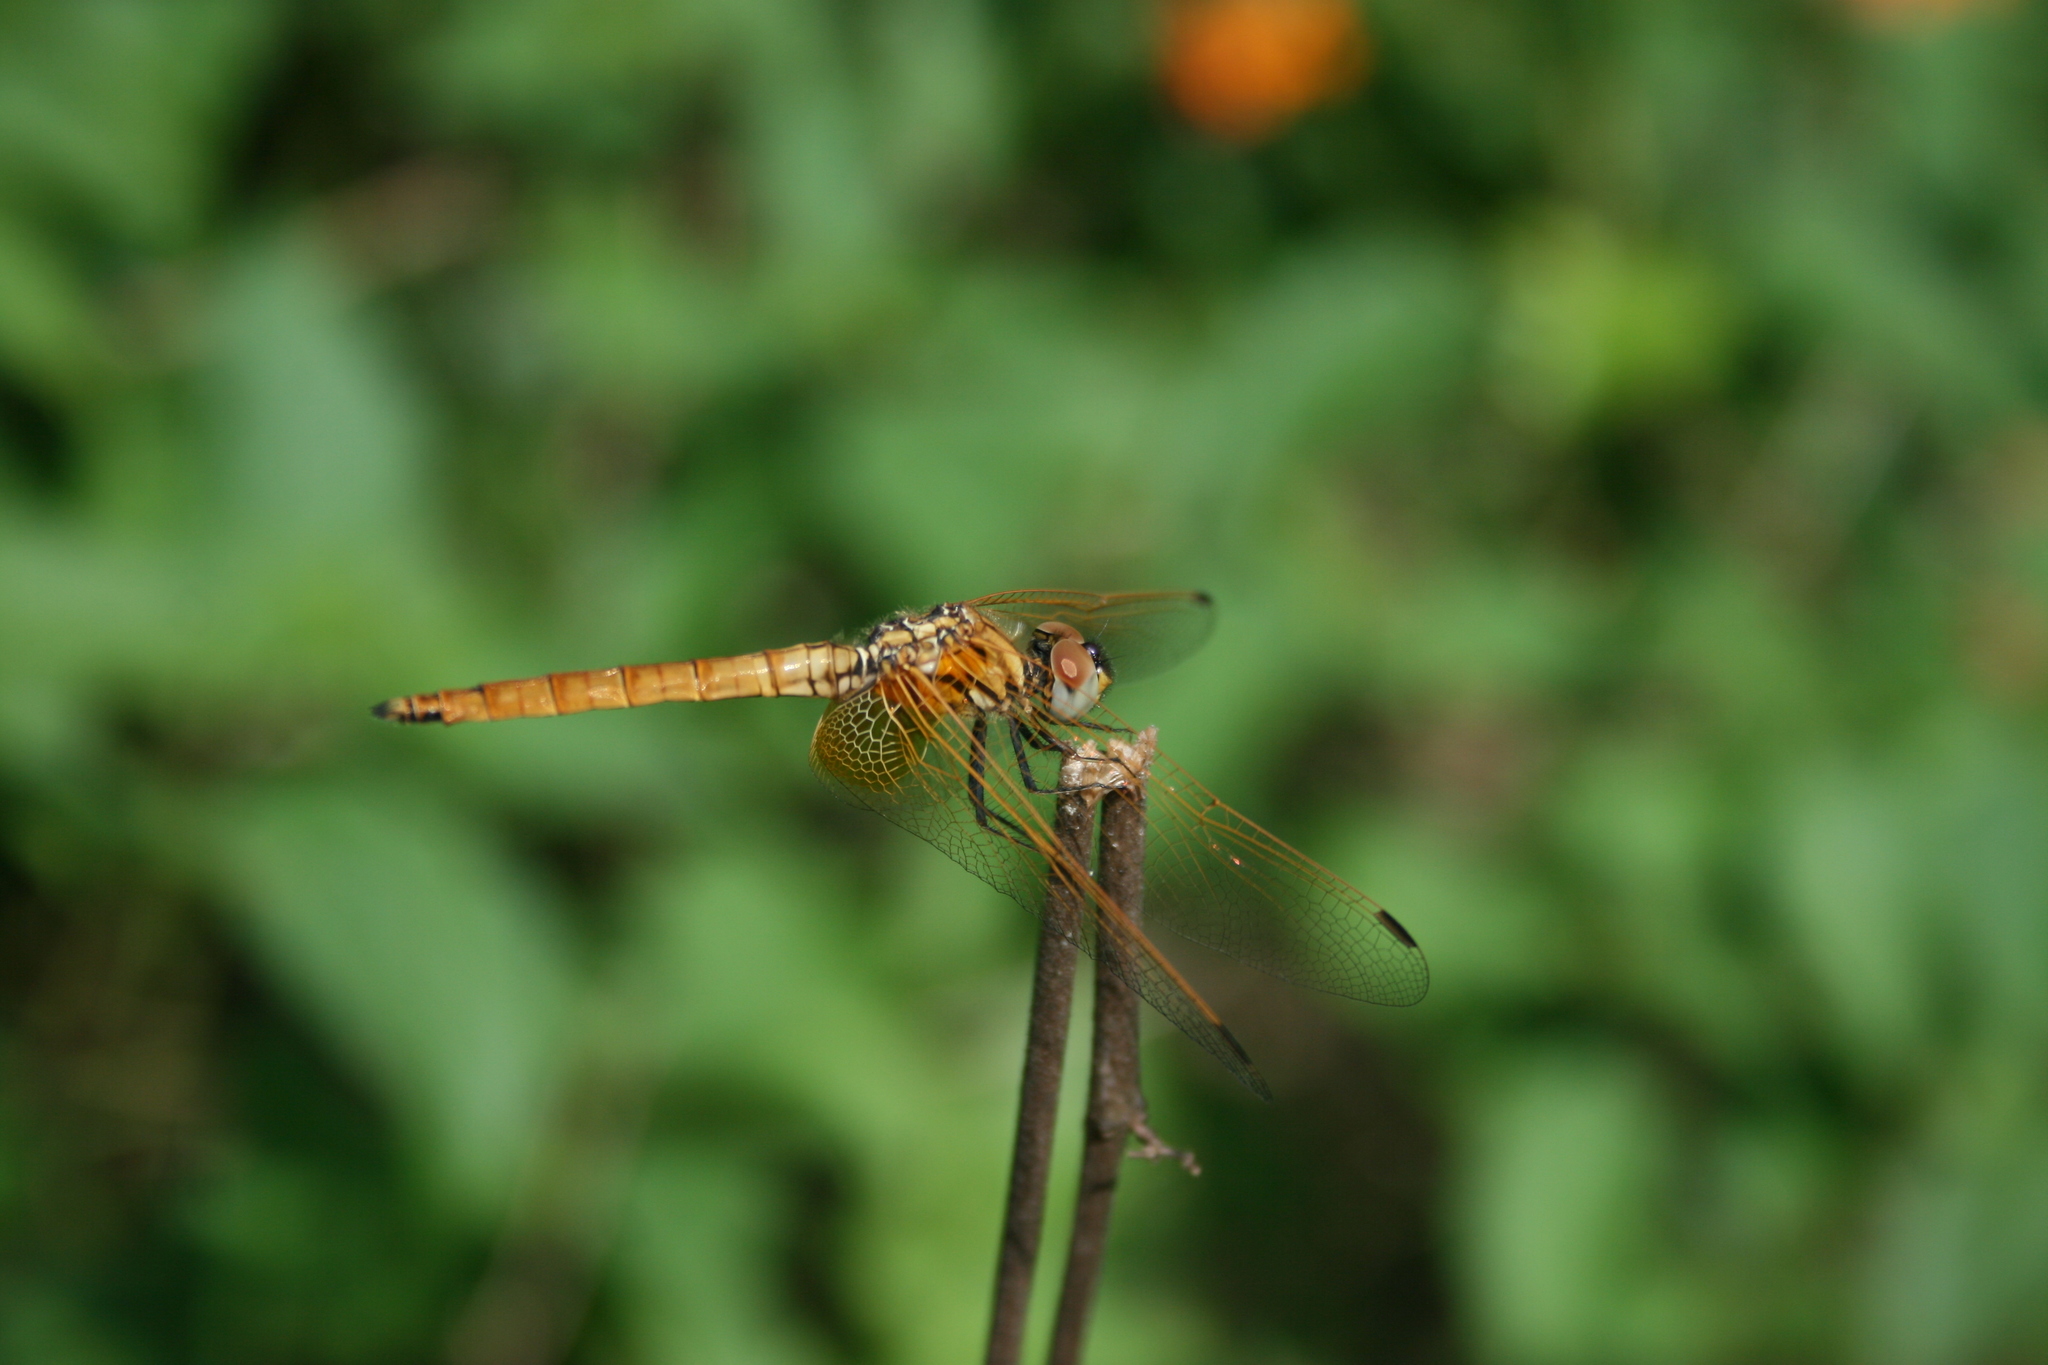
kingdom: Animalia
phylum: Arthropoda
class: Insecta
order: Odonata
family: Libellulidae
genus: Trithemis
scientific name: Trithemis aurora
